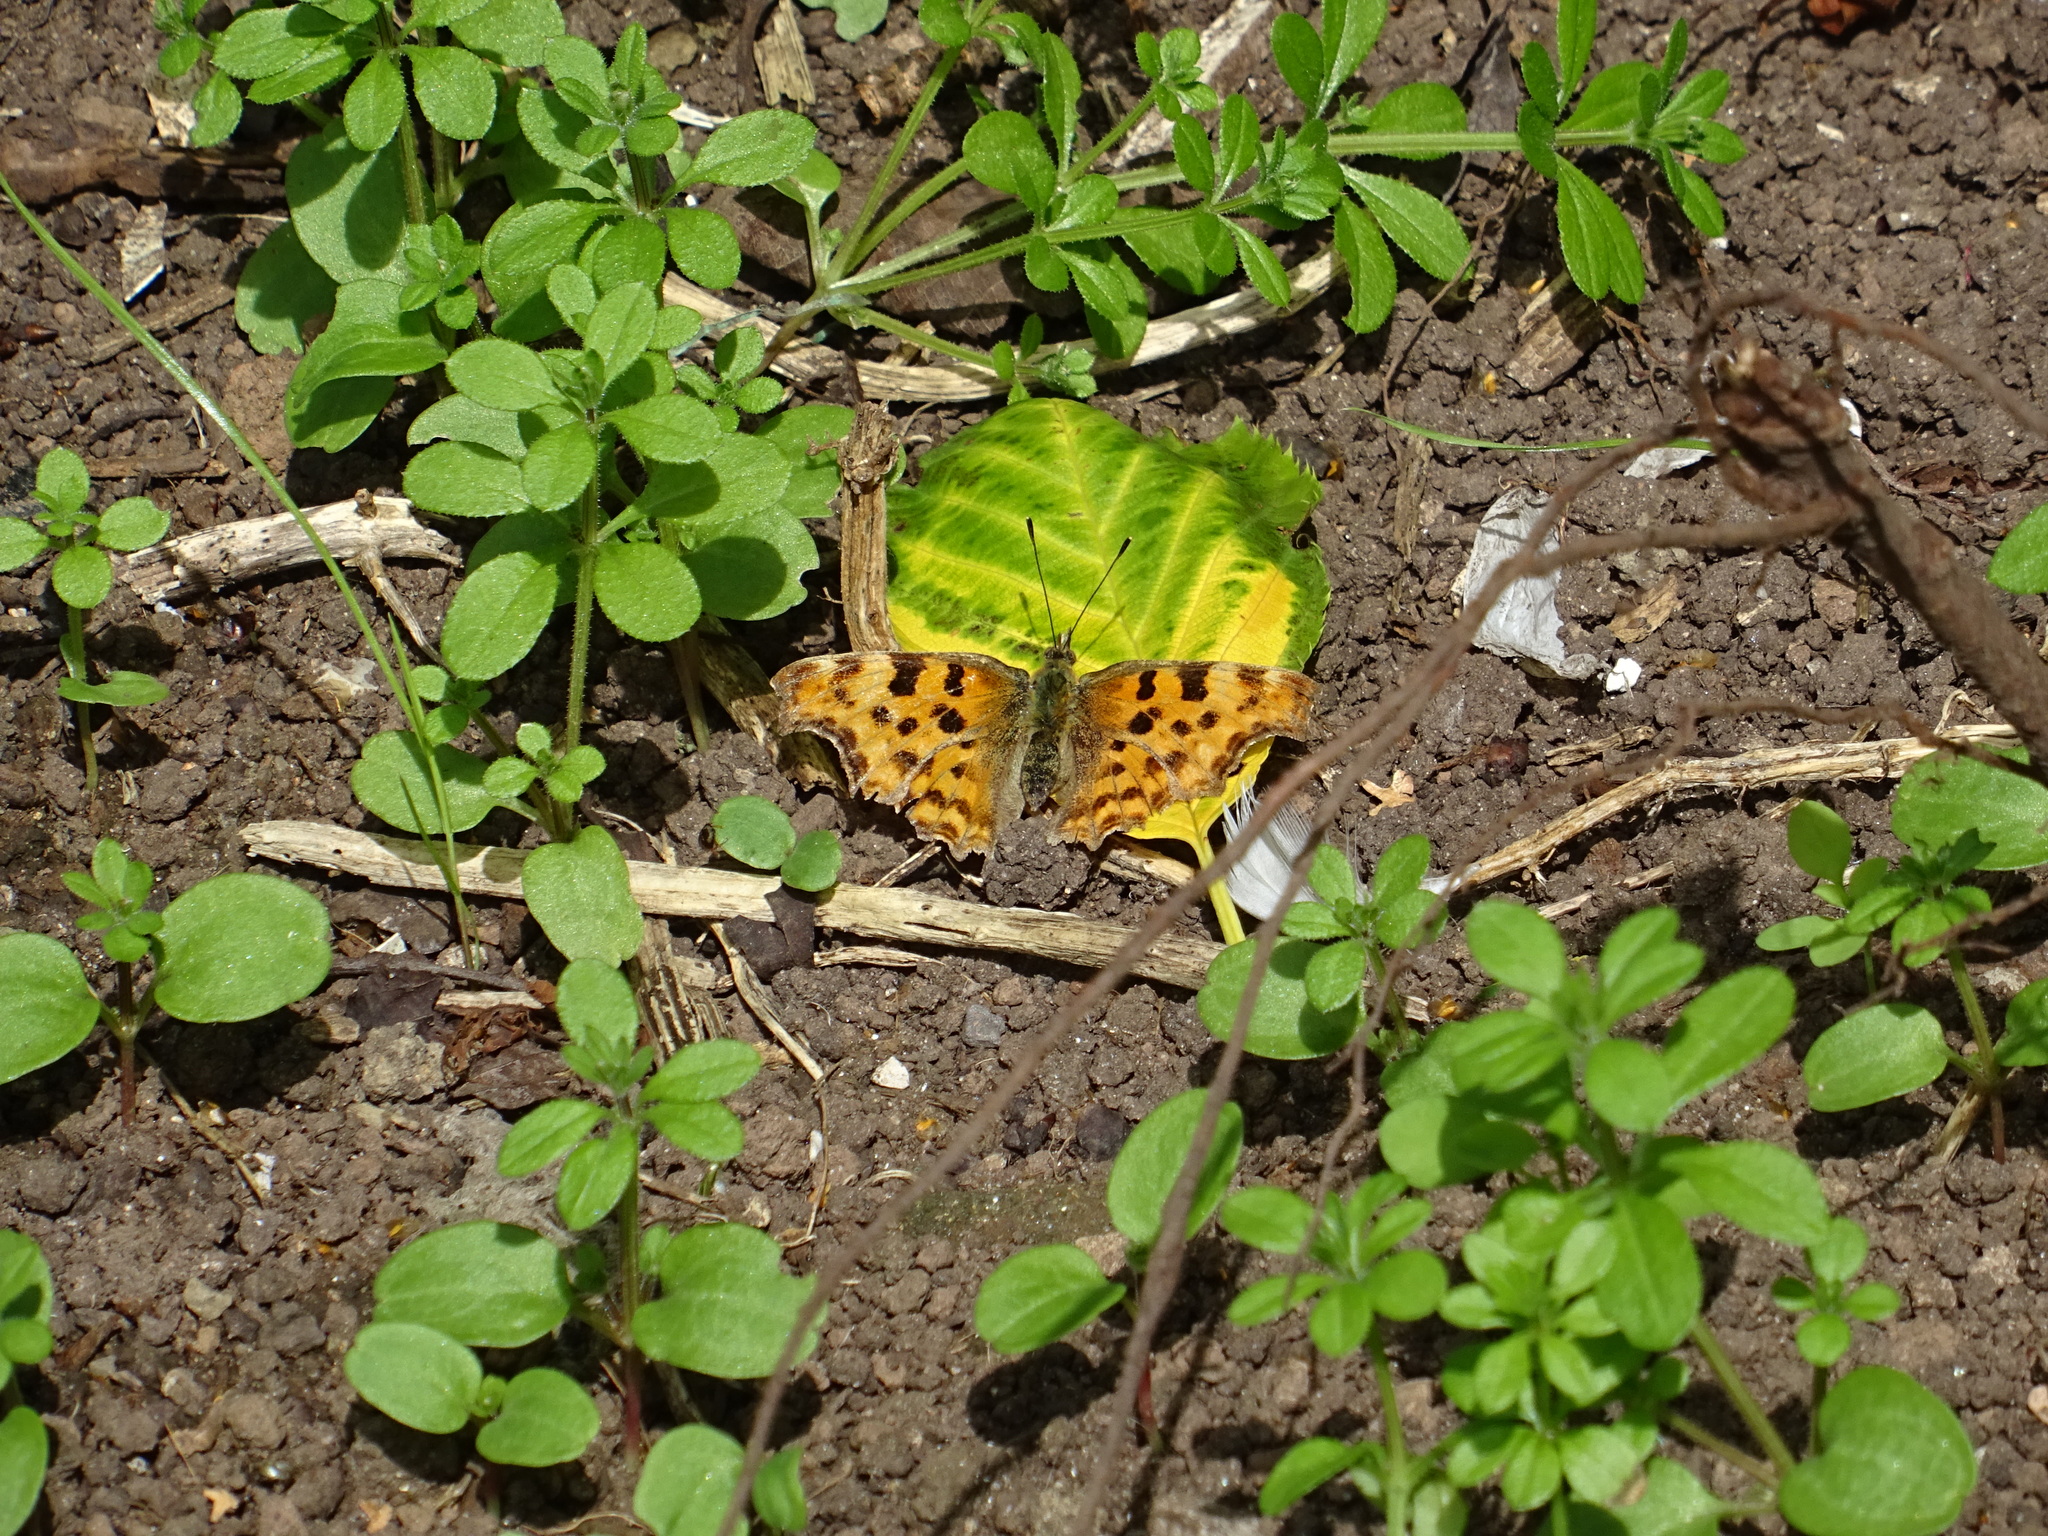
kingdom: Animalia
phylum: Arthropoda
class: Insecta
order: Lepidoptera
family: Nymphalidae
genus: Polygonia
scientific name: Polygonia c-album
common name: Comma
